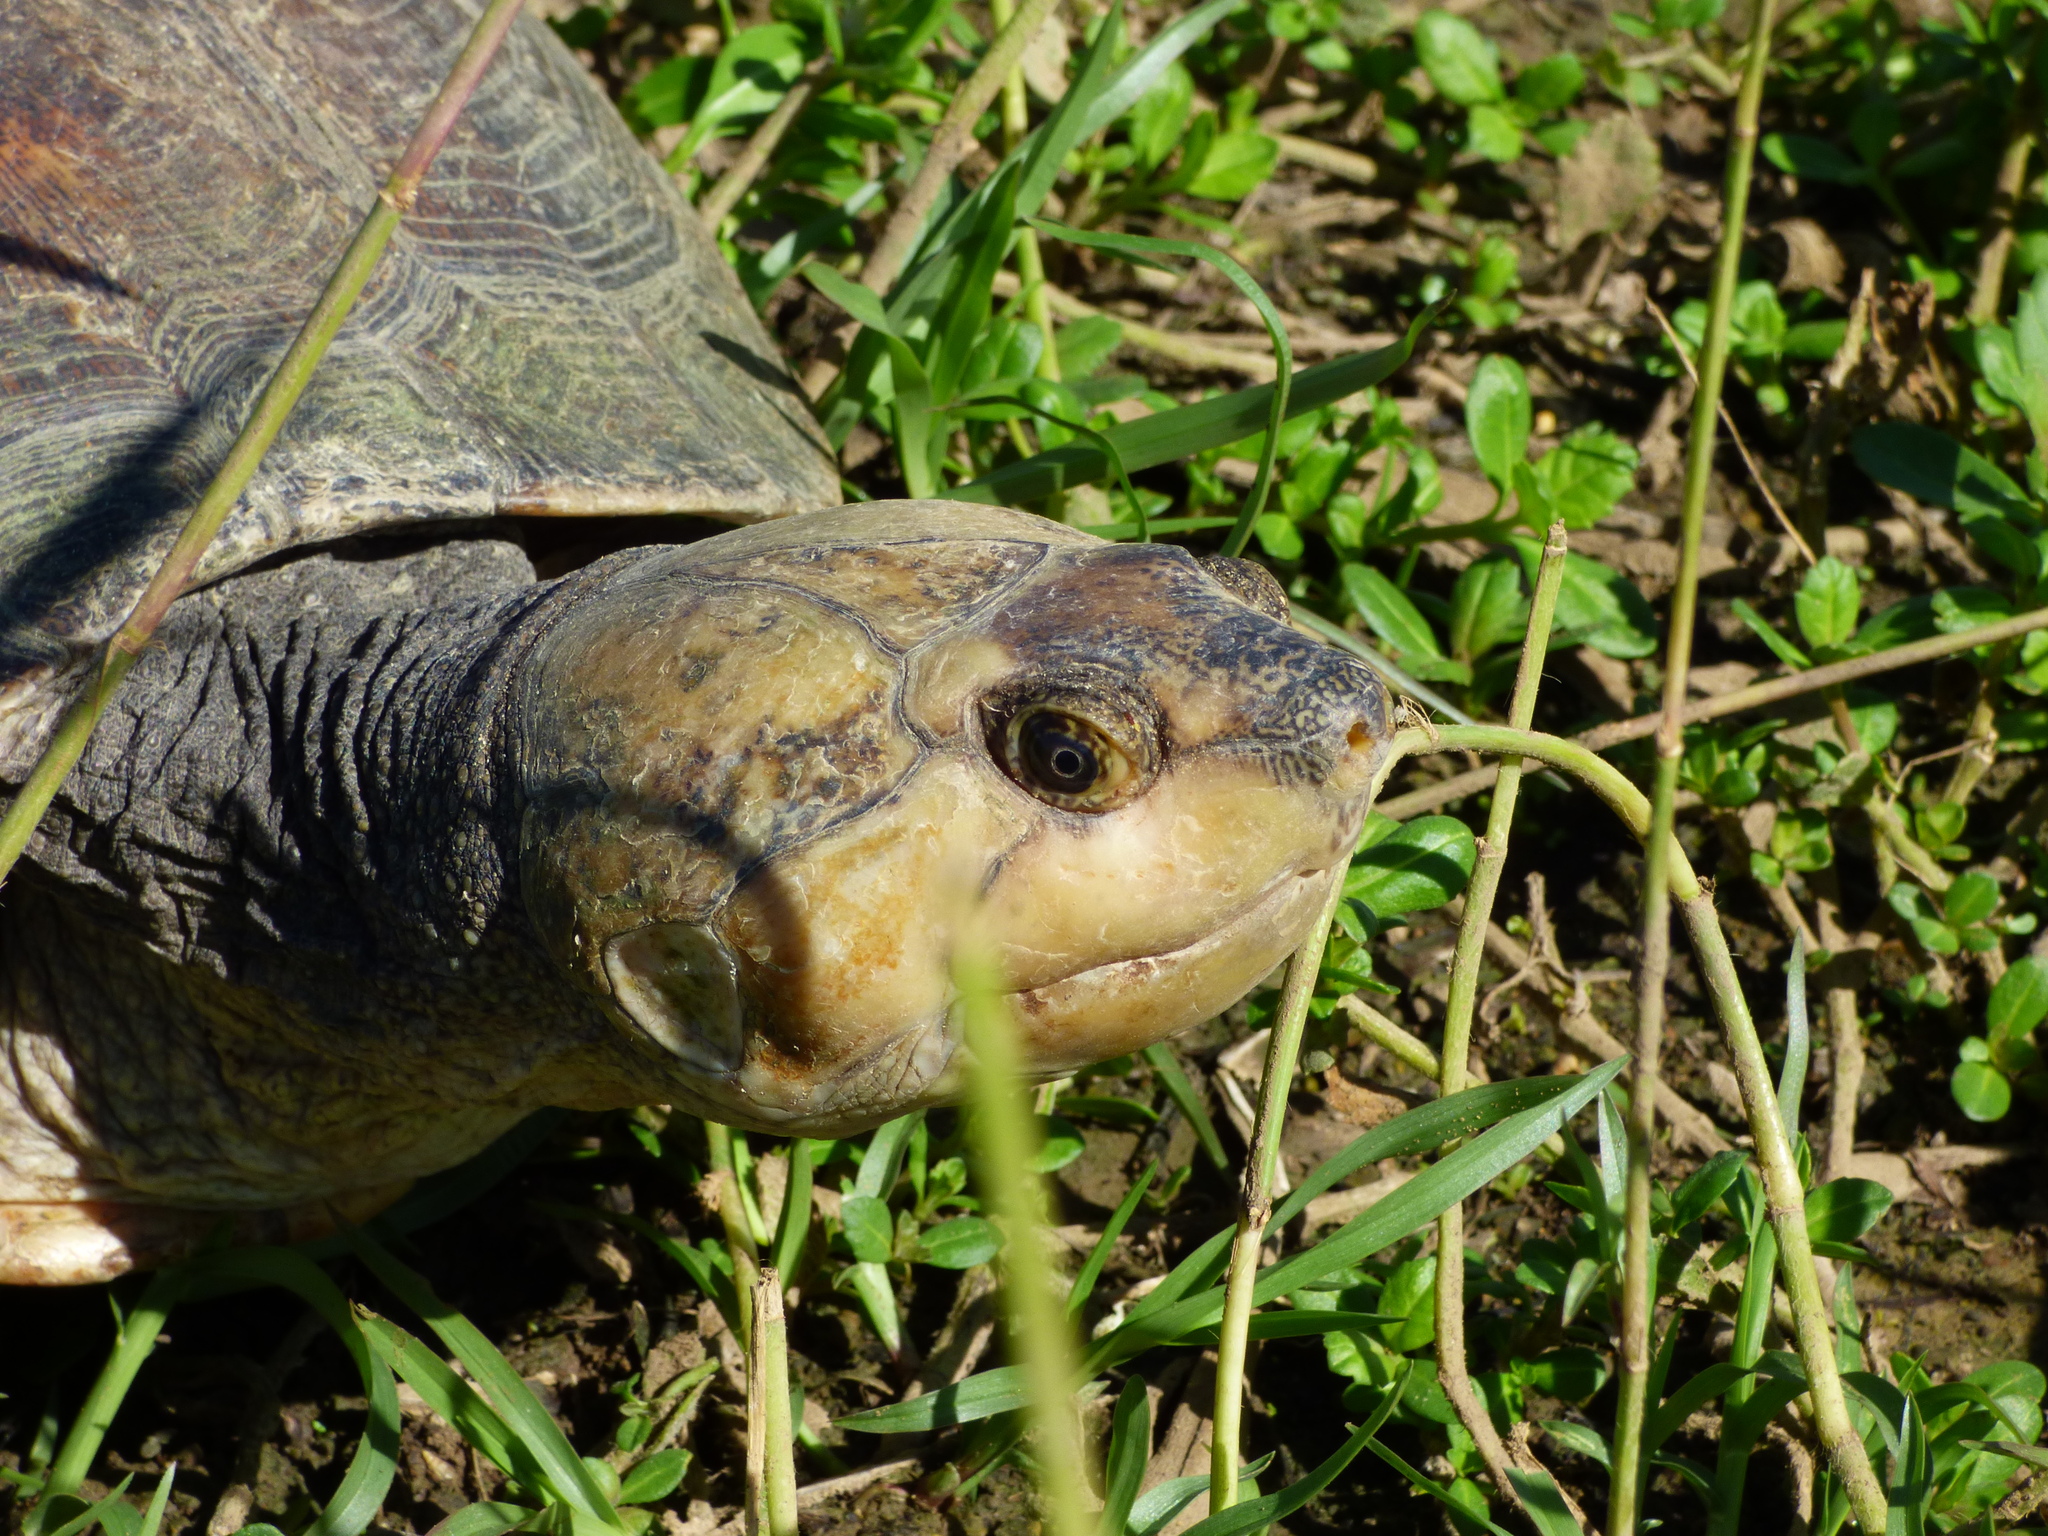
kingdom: Animalia
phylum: Chordata
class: Testudines
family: Podocnemididae
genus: Erymnochelys
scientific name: Erymnochelys madagascariensis
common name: Madagascan big-headed side-necked turtle
